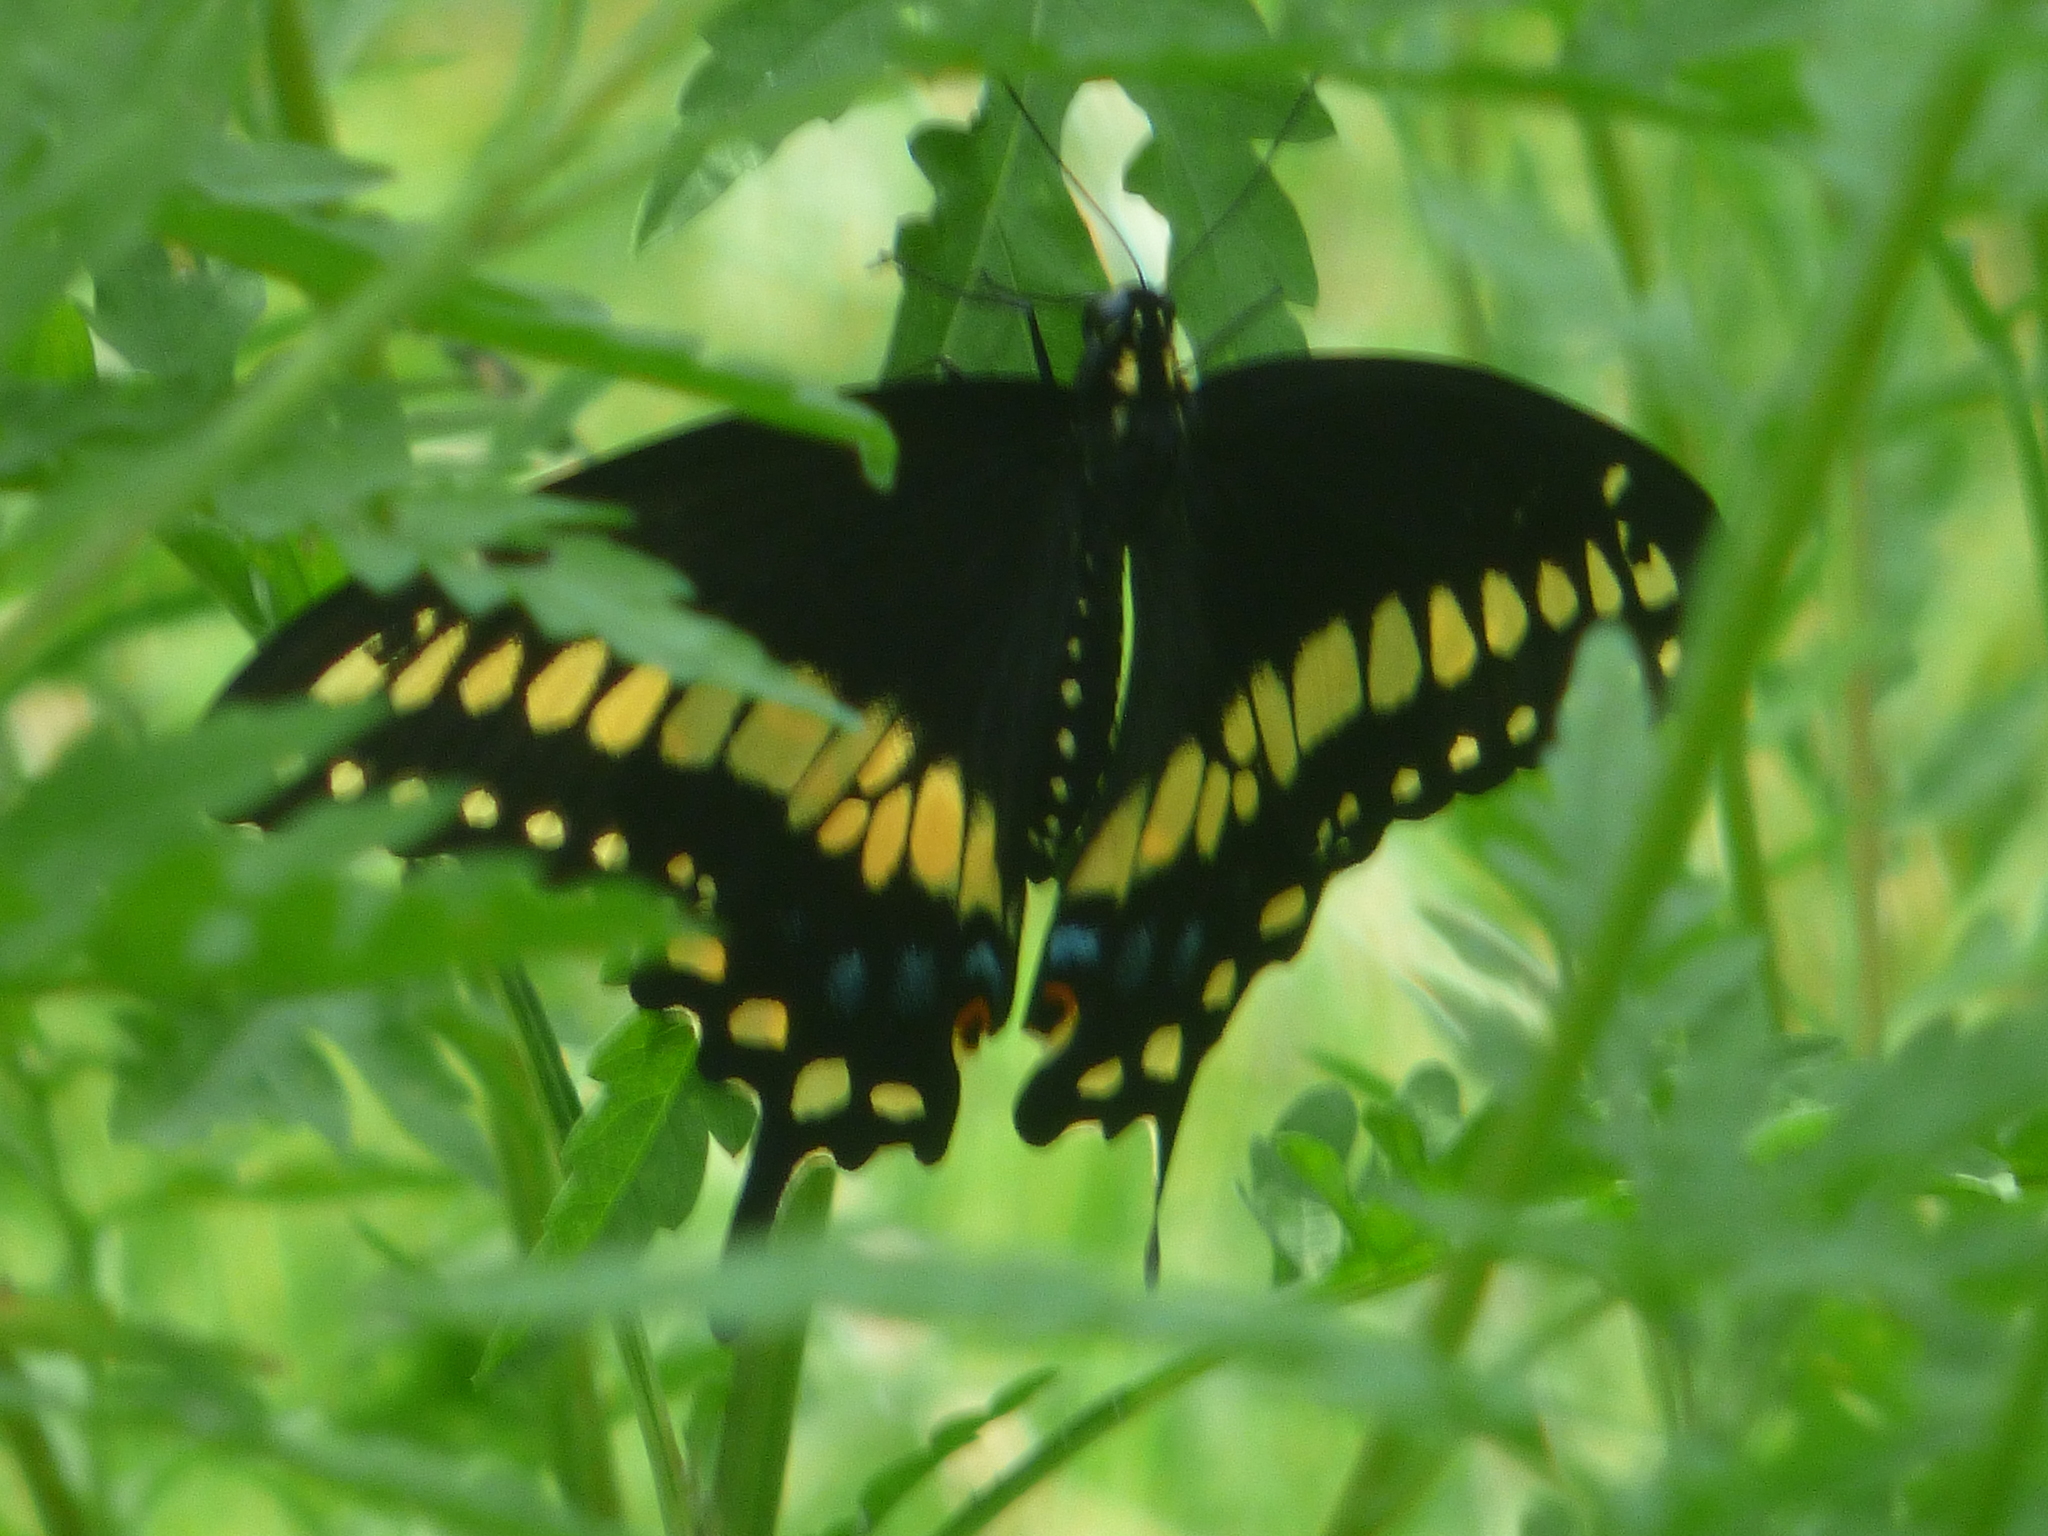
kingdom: Animalia
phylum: Arthropoda
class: Insecta
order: Lepidoptera
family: Papilionidae
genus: Papilio
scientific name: Papilio polyxenes
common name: Black swallowtail
